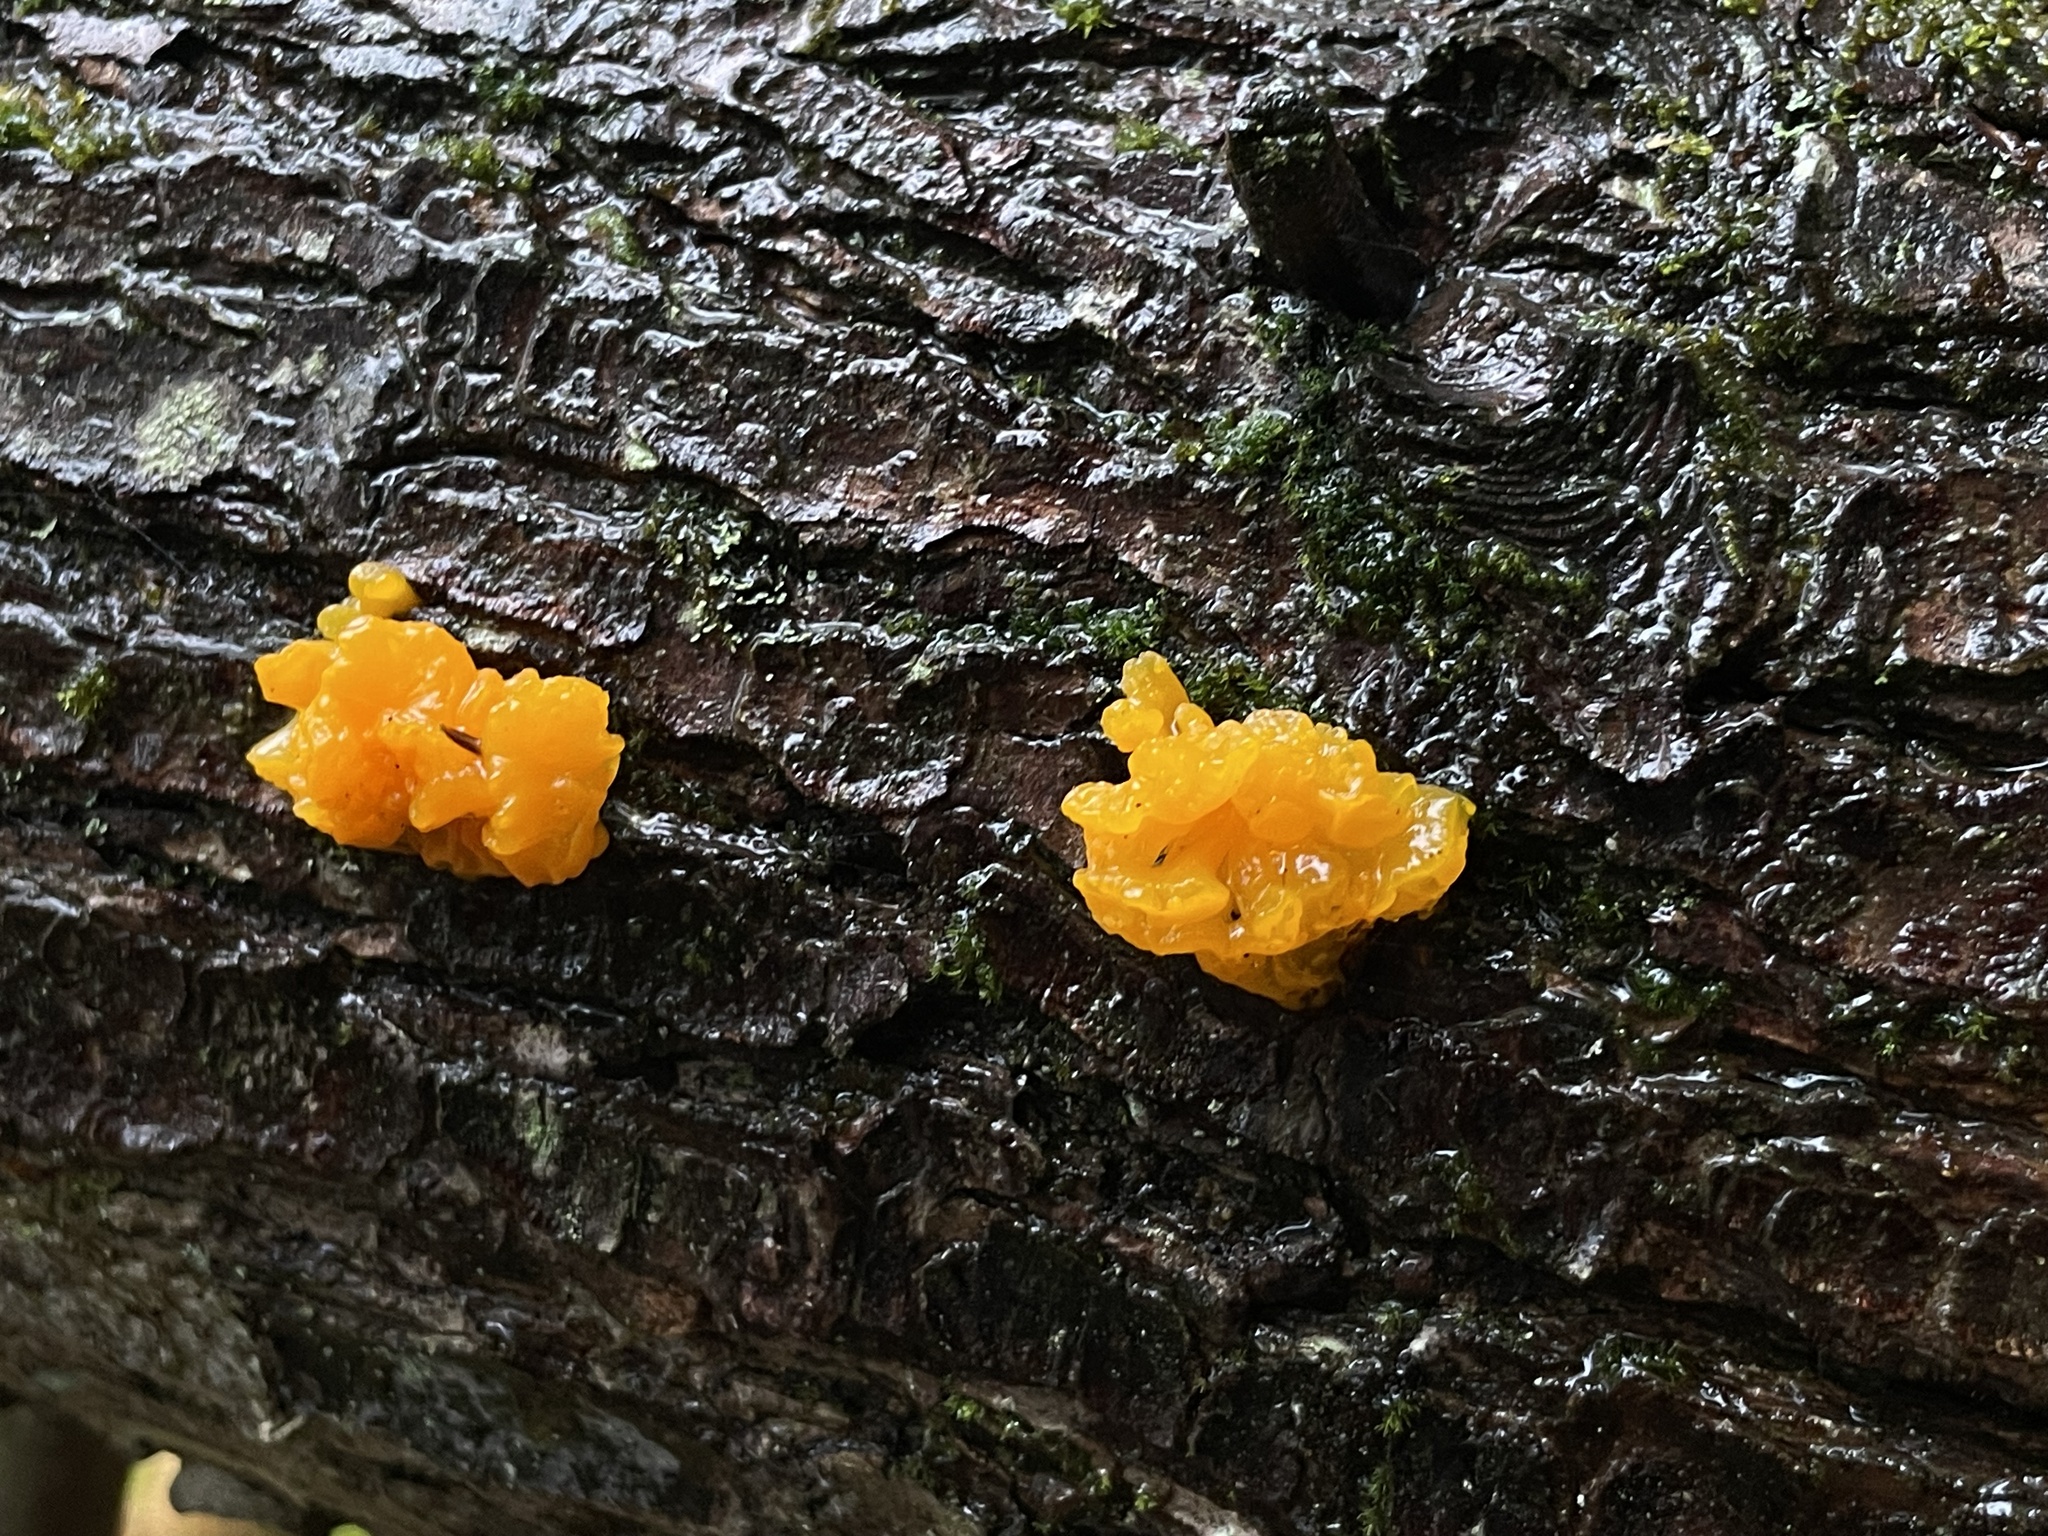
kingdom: Fungi
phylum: Basidiomycota
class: Dacrymycetes
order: Dacrymycetales
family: Dacrymycetaceae
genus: Dacrymyces
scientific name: Dacrymyces chrysospermus
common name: Orange jelly spot
